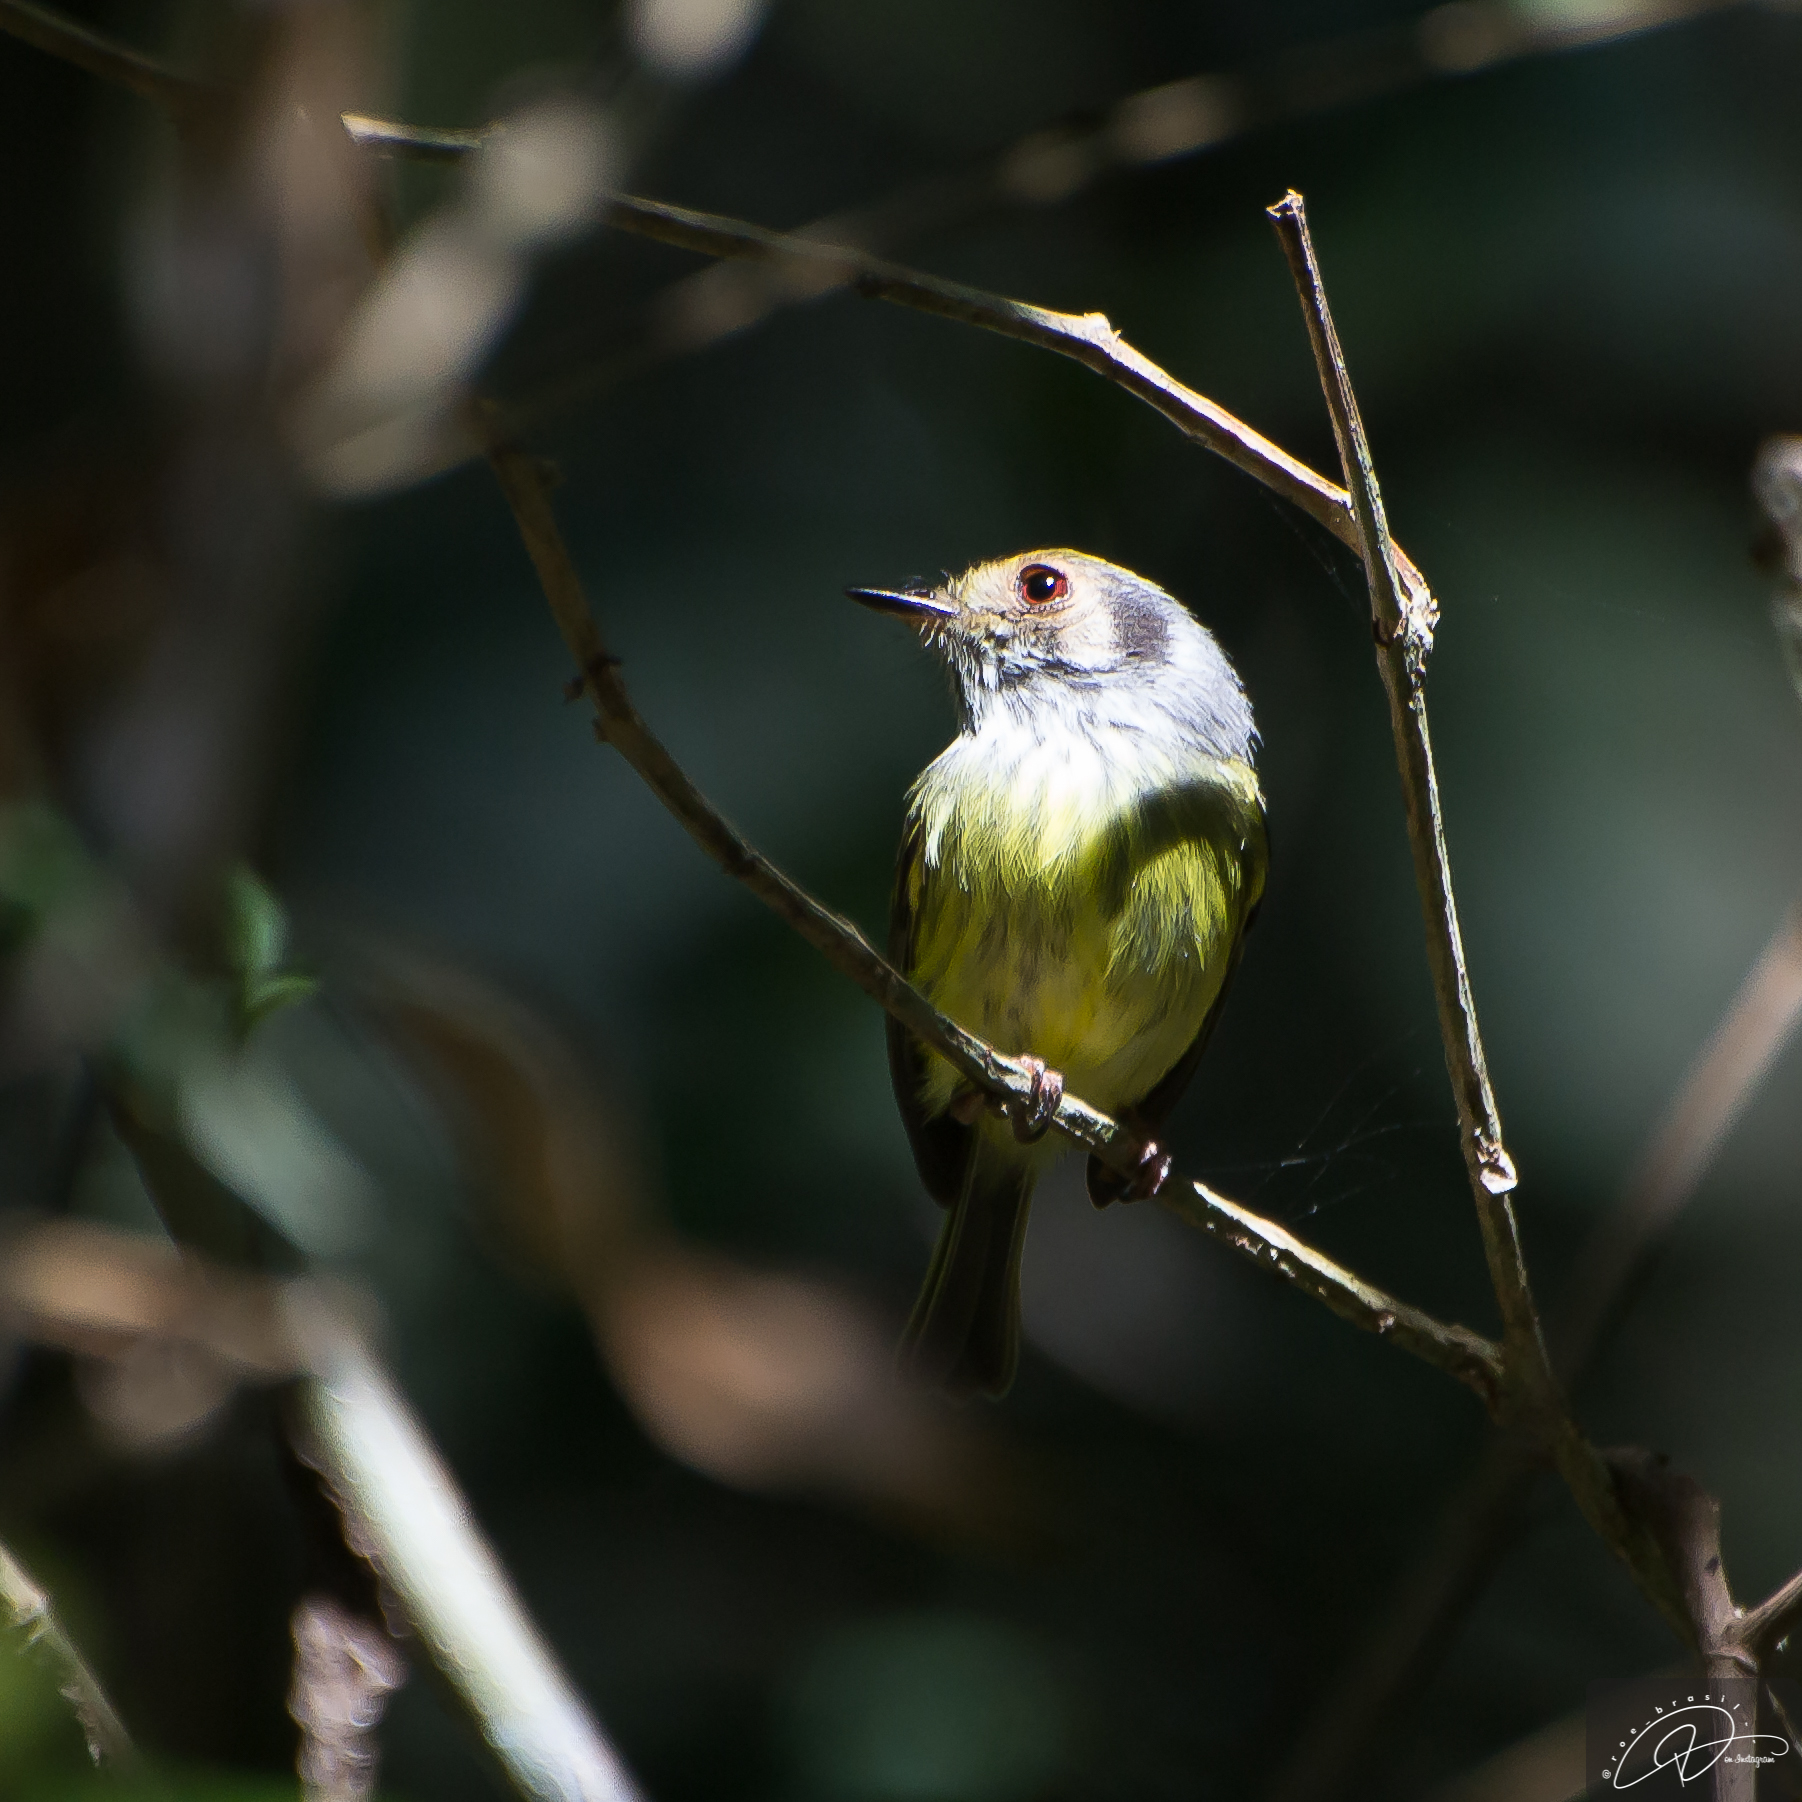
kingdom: Animalia
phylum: Chordata
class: Aves
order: Passeriformes
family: Tyrannidae
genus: Myiornis
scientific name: Myiornis auricularis
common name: Eared pygmy tyrant
